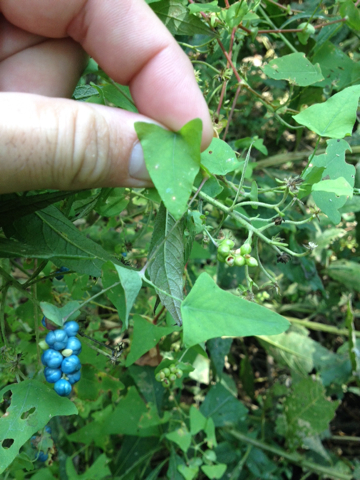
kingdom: Plantae
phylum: Tracheophyta
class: Magnoliopsida
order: Caryophyllales
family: Polygonaceae
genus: Persicaria
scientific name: Persicaria perfoliata
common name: Asiatic tearthumb
